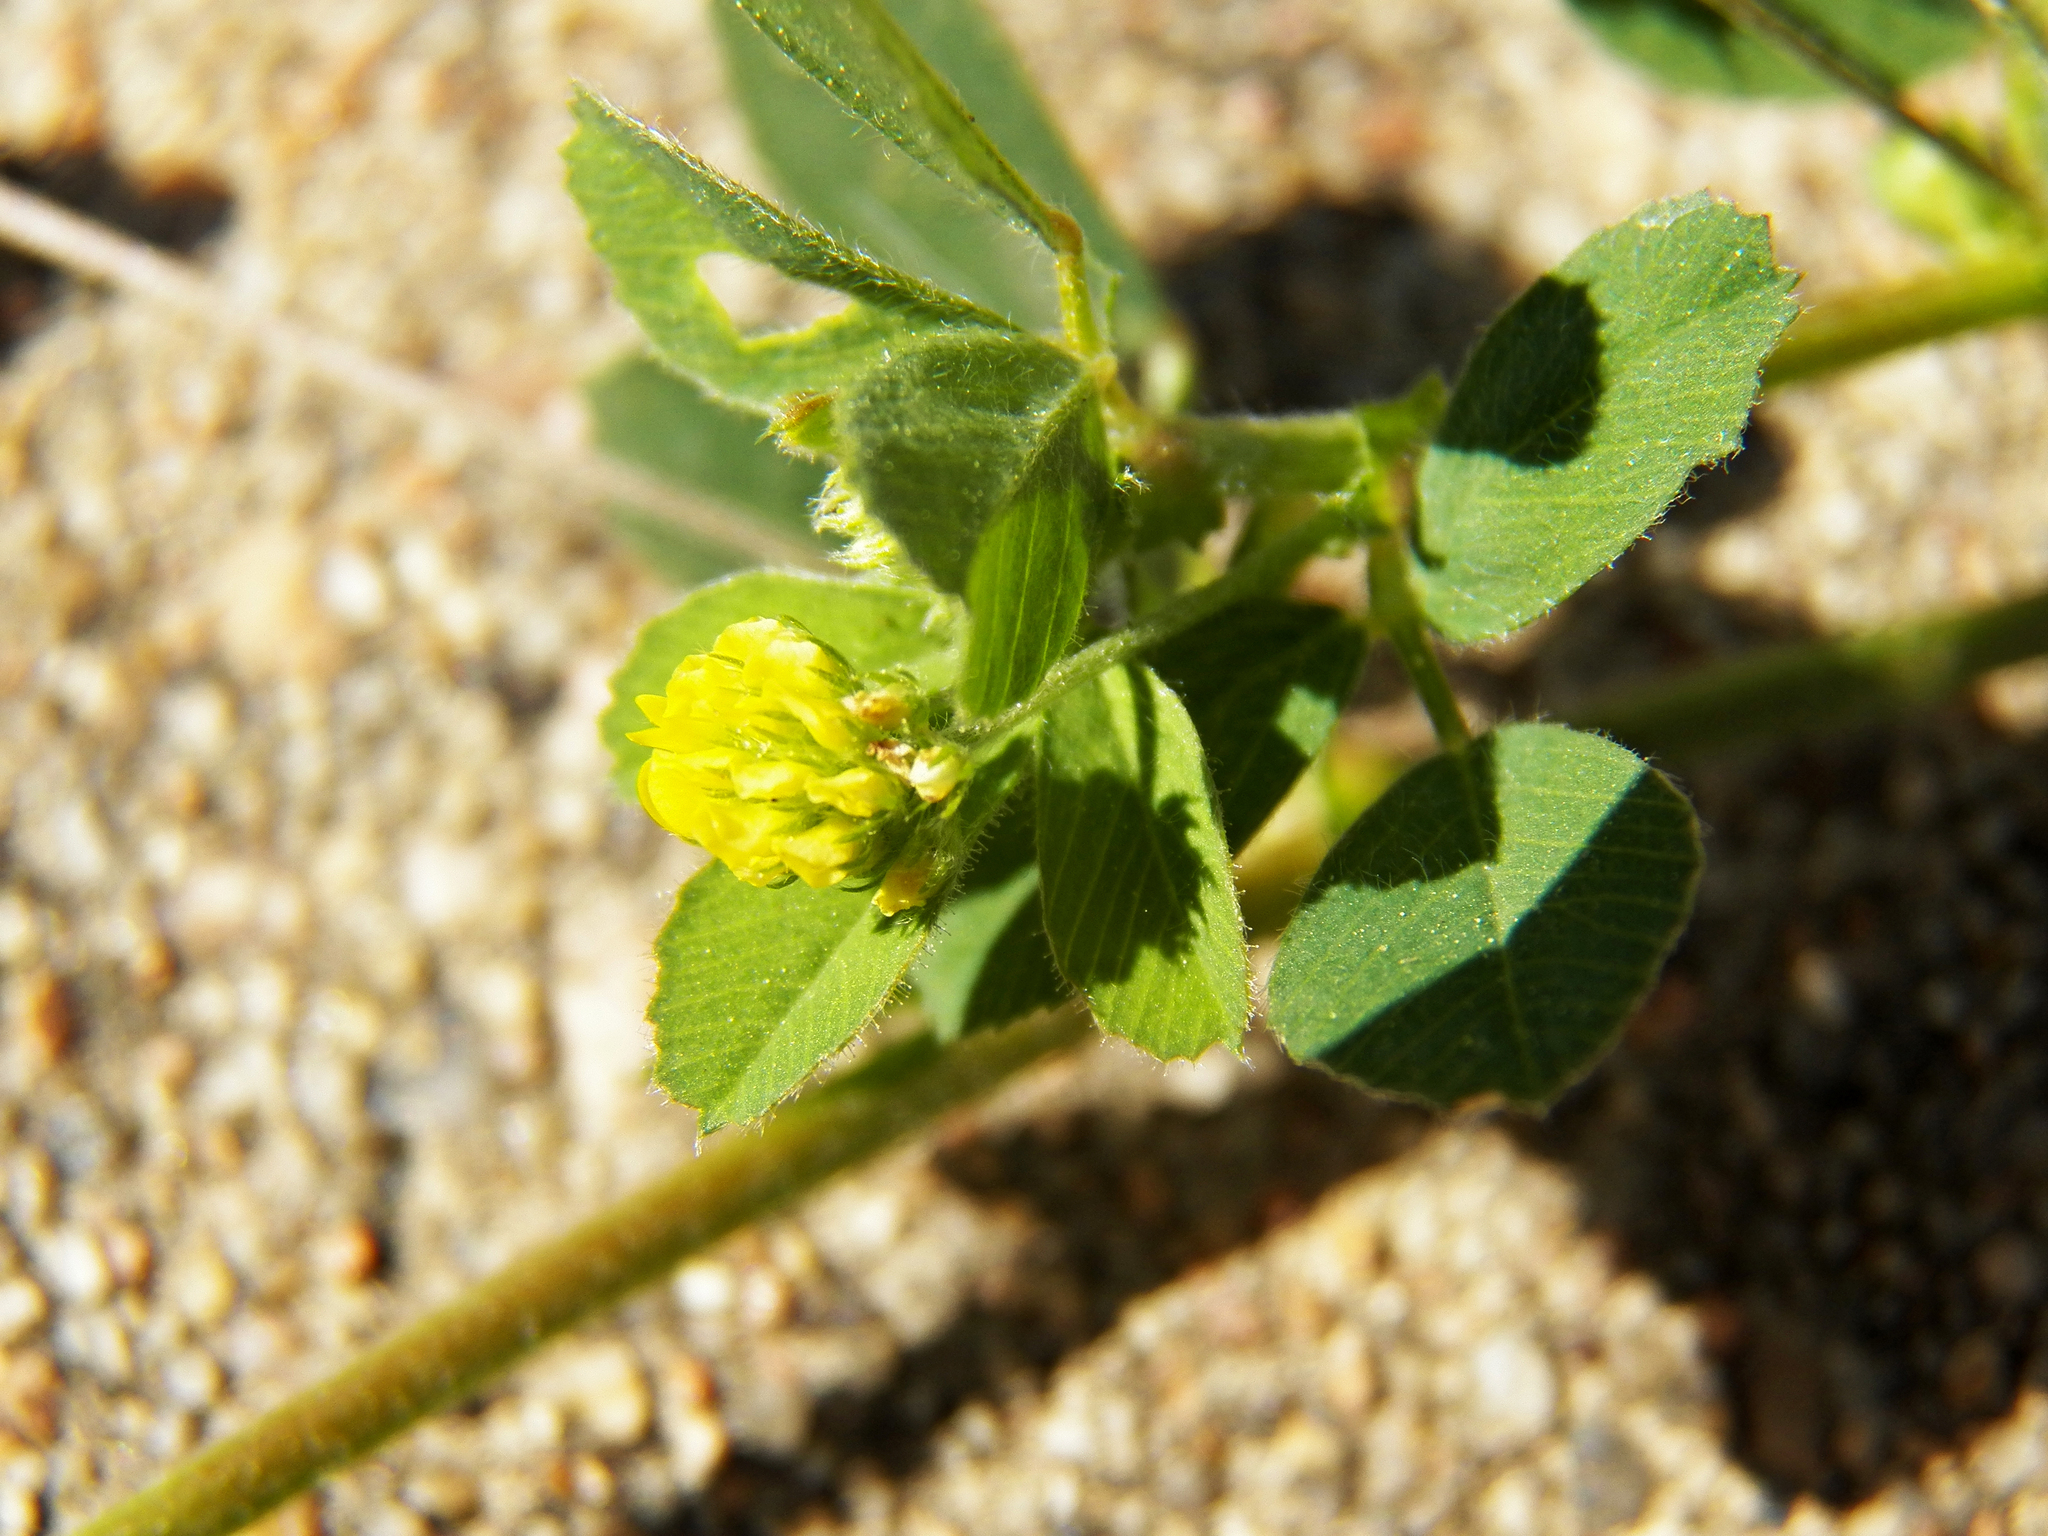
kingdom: Plantae
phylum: Tracheophyta
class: Magnoliopsida
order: Fabales
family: Fabaceae
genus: Medicago
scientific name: Medicago lupulina
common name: Black medick
